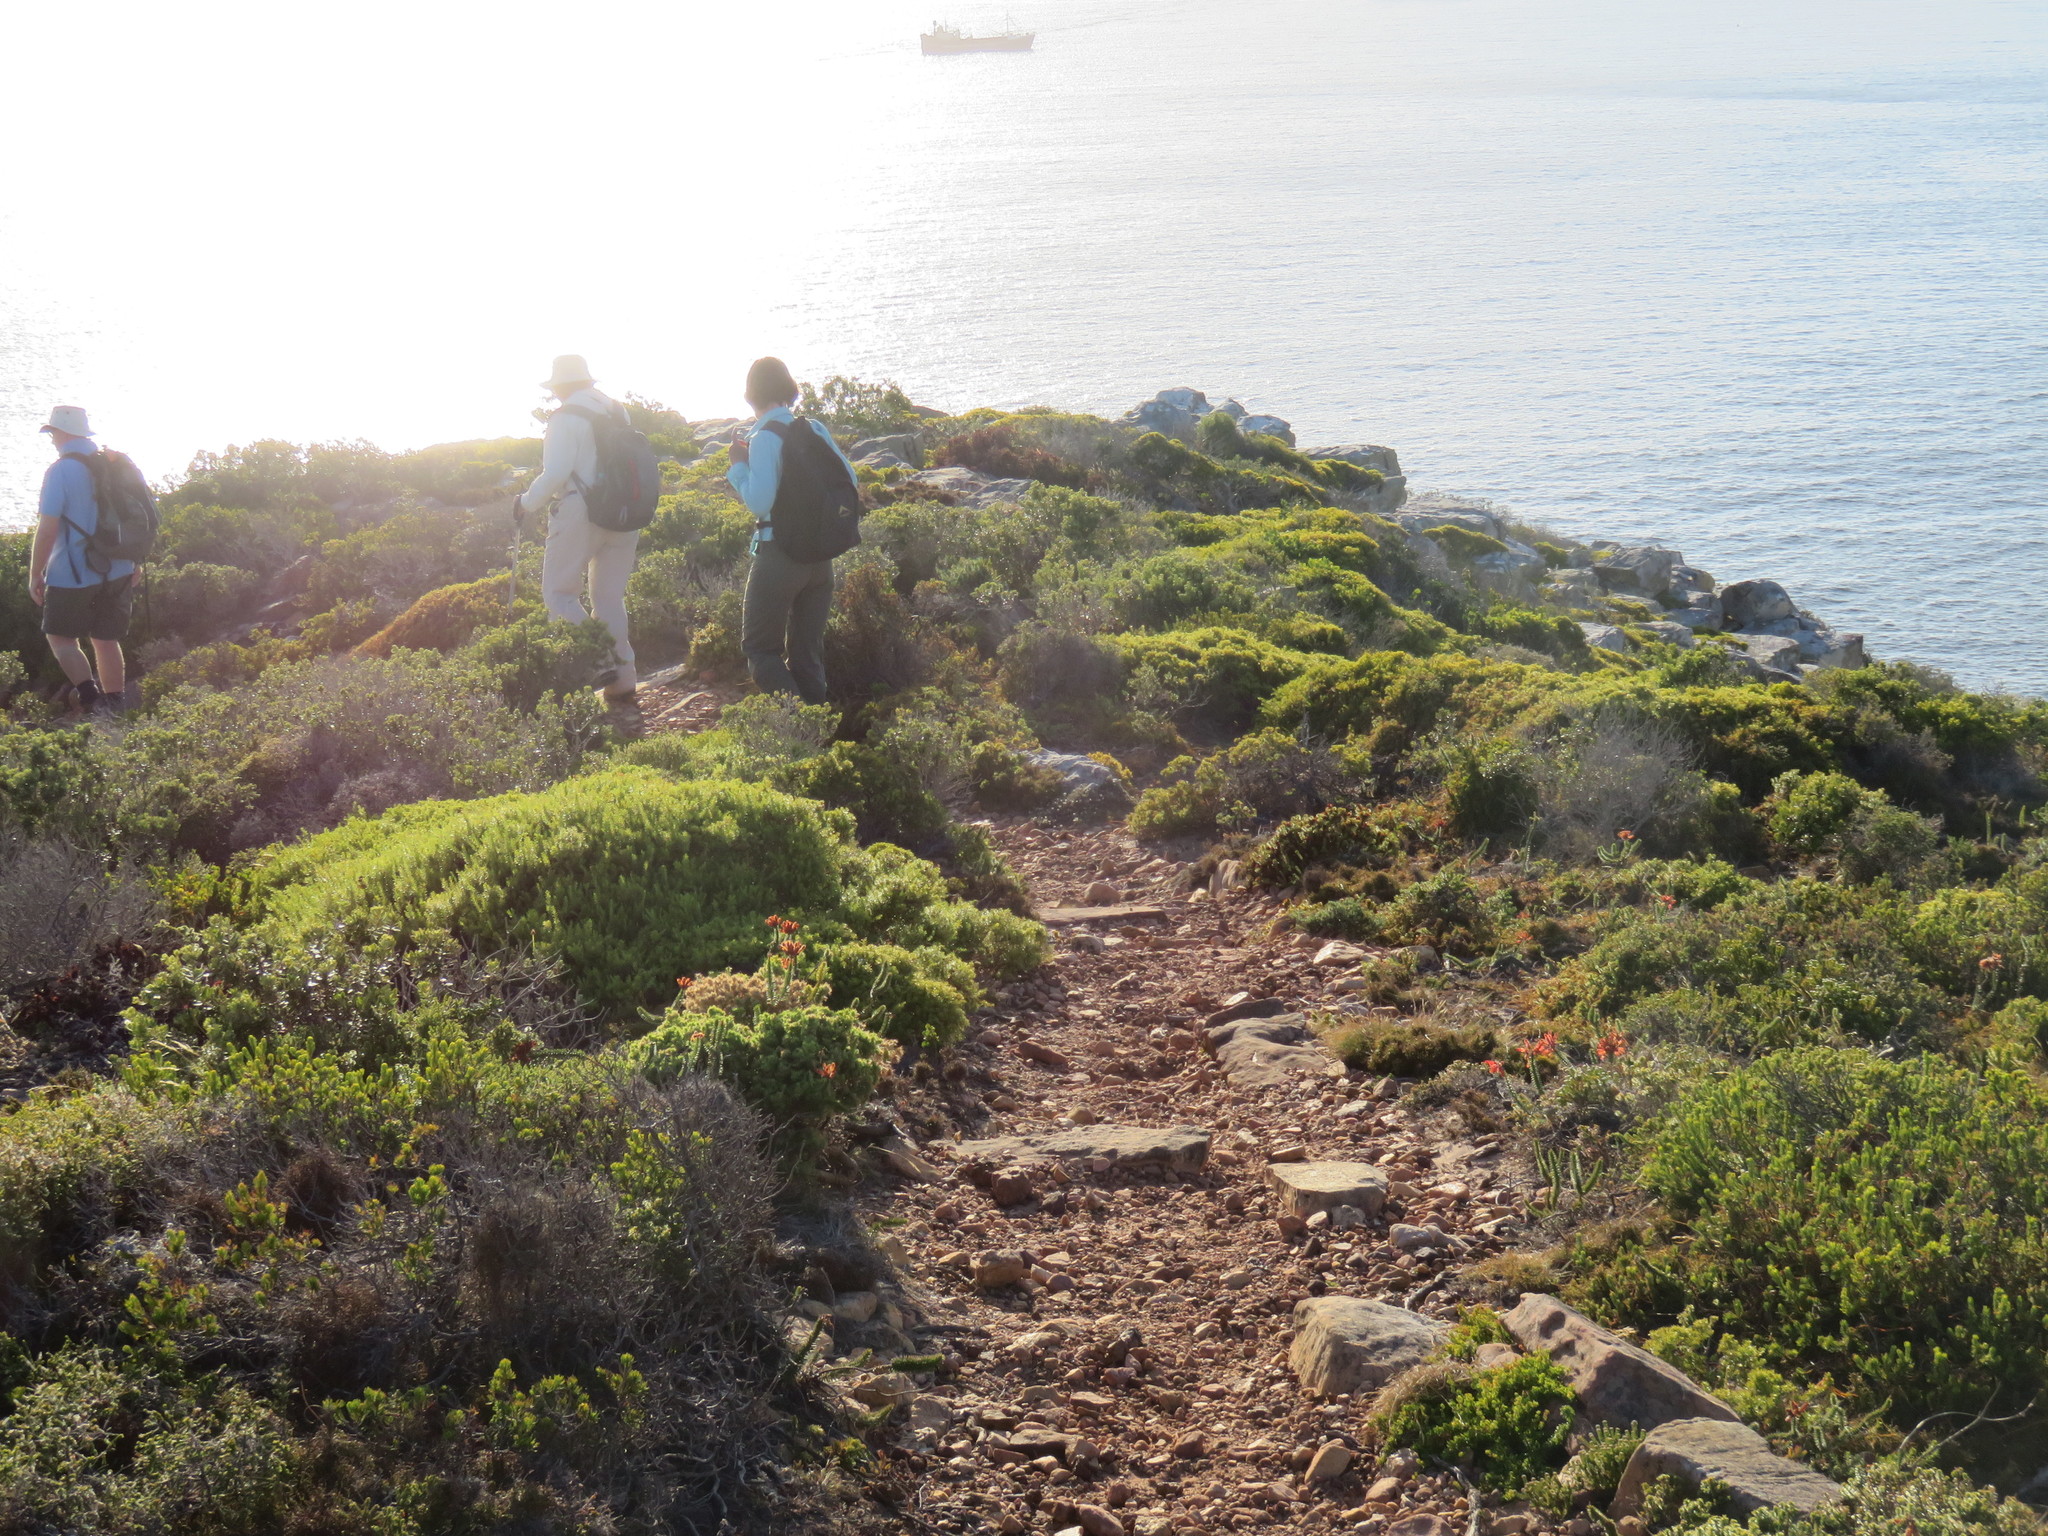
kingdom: Plantae
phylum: Tracheophyta
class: Magnoliopsida
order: Sapindales
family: Rutaceae
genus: Coleonema
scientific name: Coleonema album
